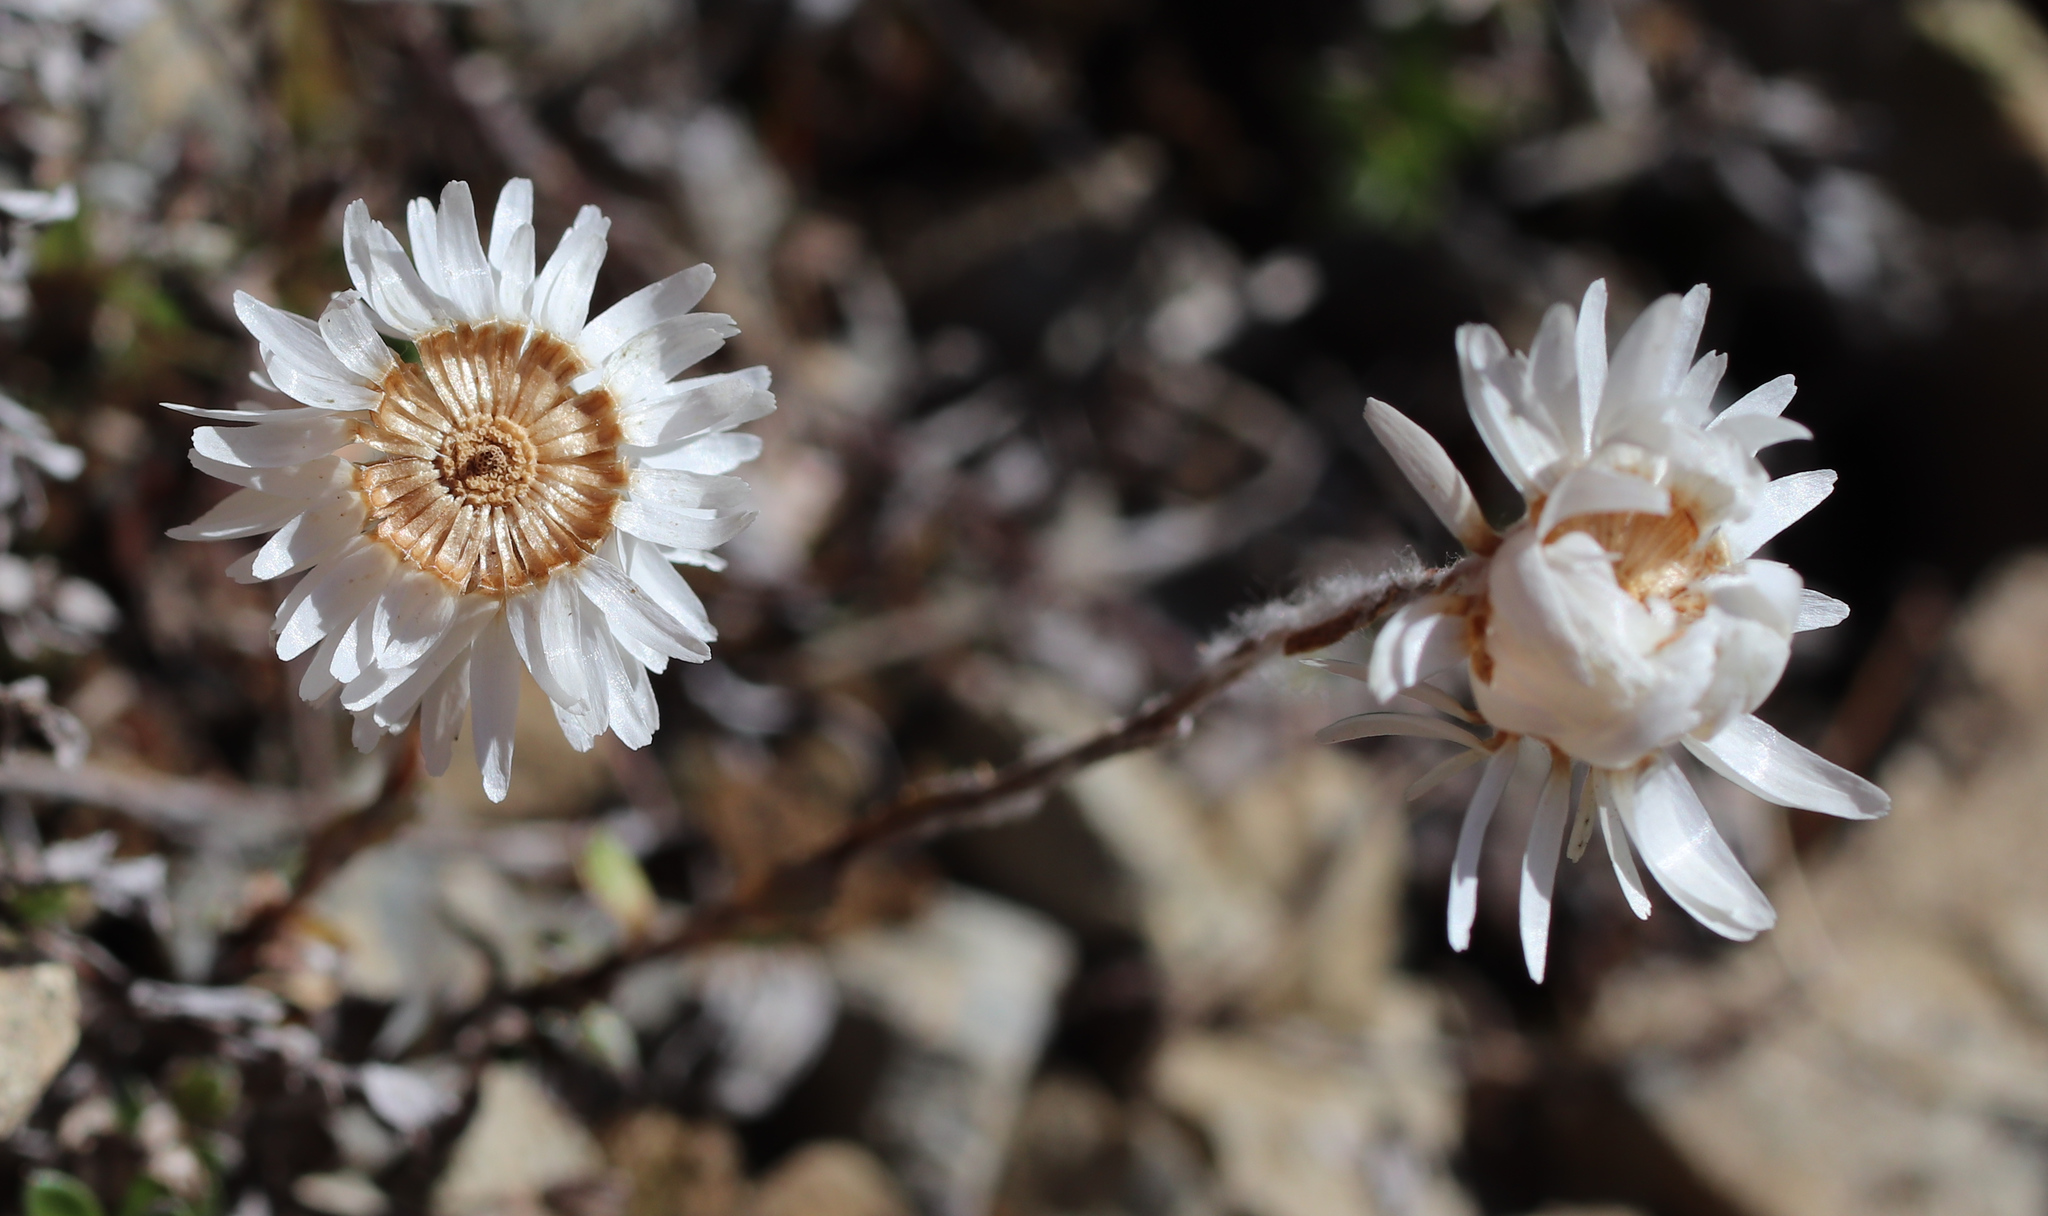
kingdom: Plantae
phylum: Tracheophyta
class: Magnoliopsida
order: Asterales
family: Asteraceae
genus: Anaphalioides
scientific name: Anaphalioides bellidioides
